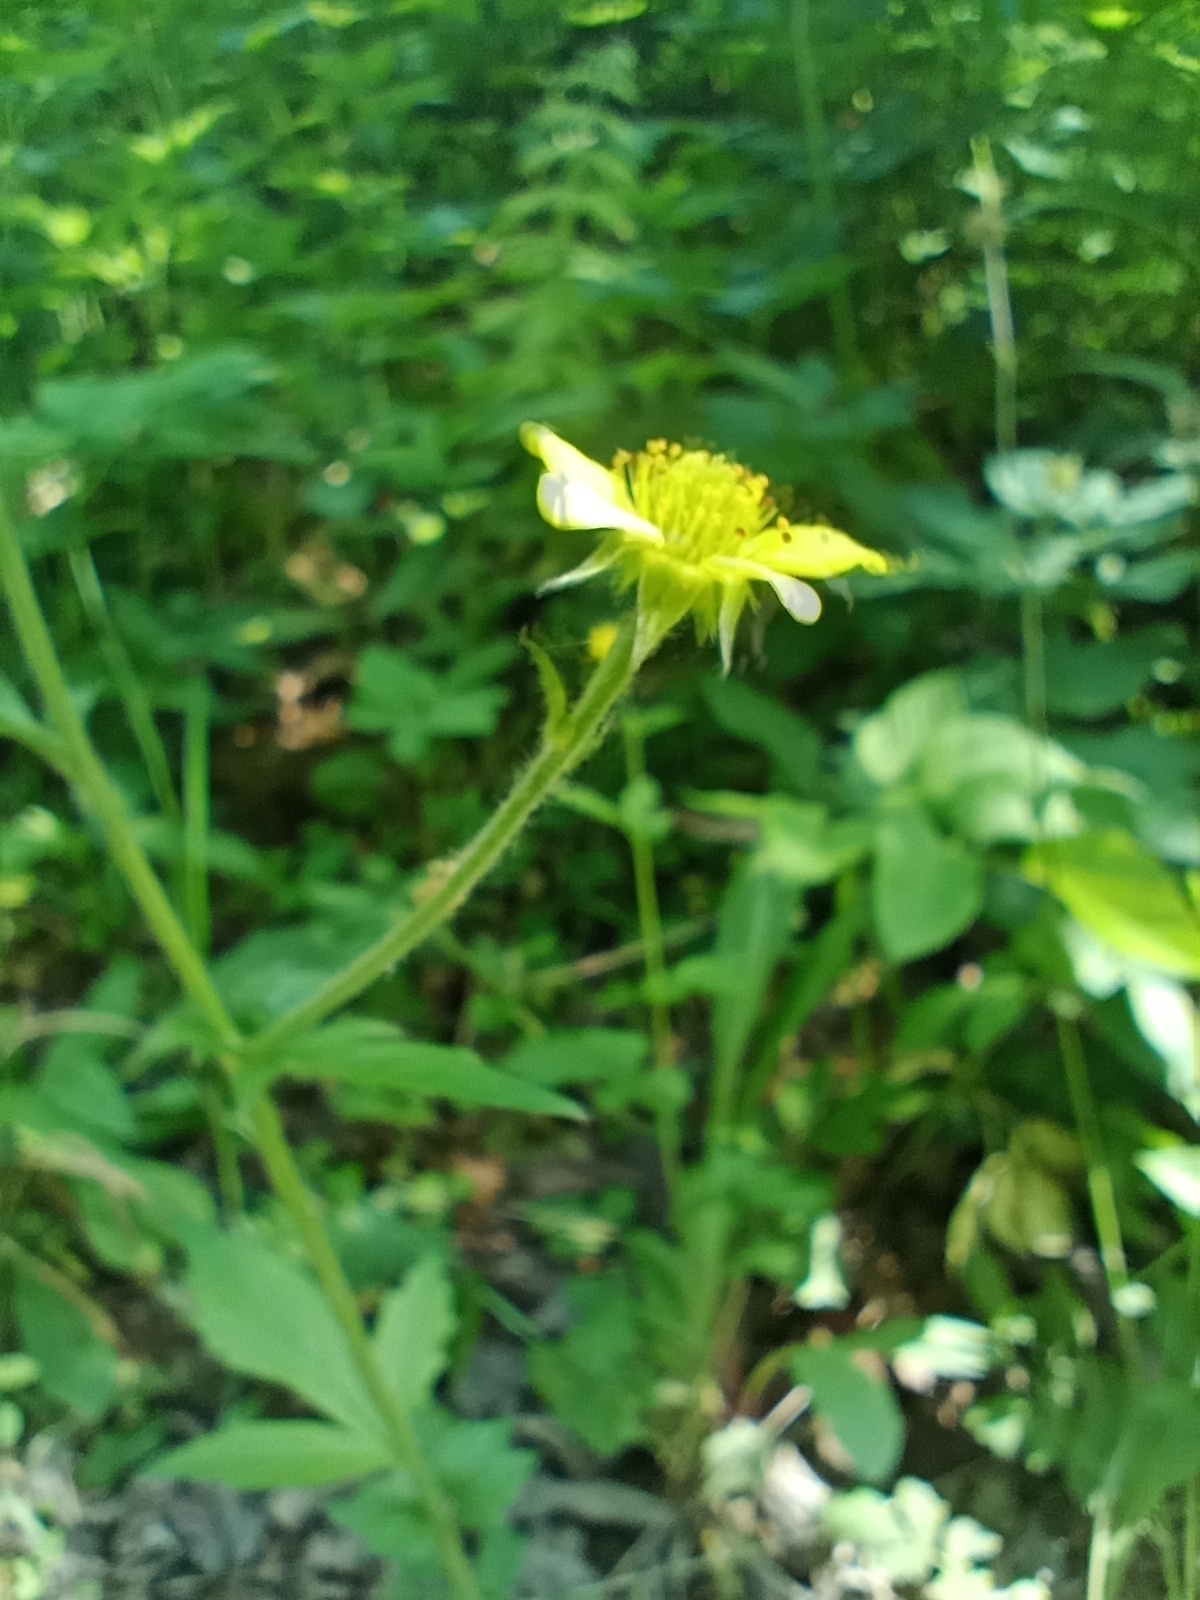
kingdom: Plantae
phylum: Tracheophyta
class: Magnoliopsida
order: Rosales
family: Rosaceae
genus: Geum
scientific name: Geum urbanum
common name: Wood avens
